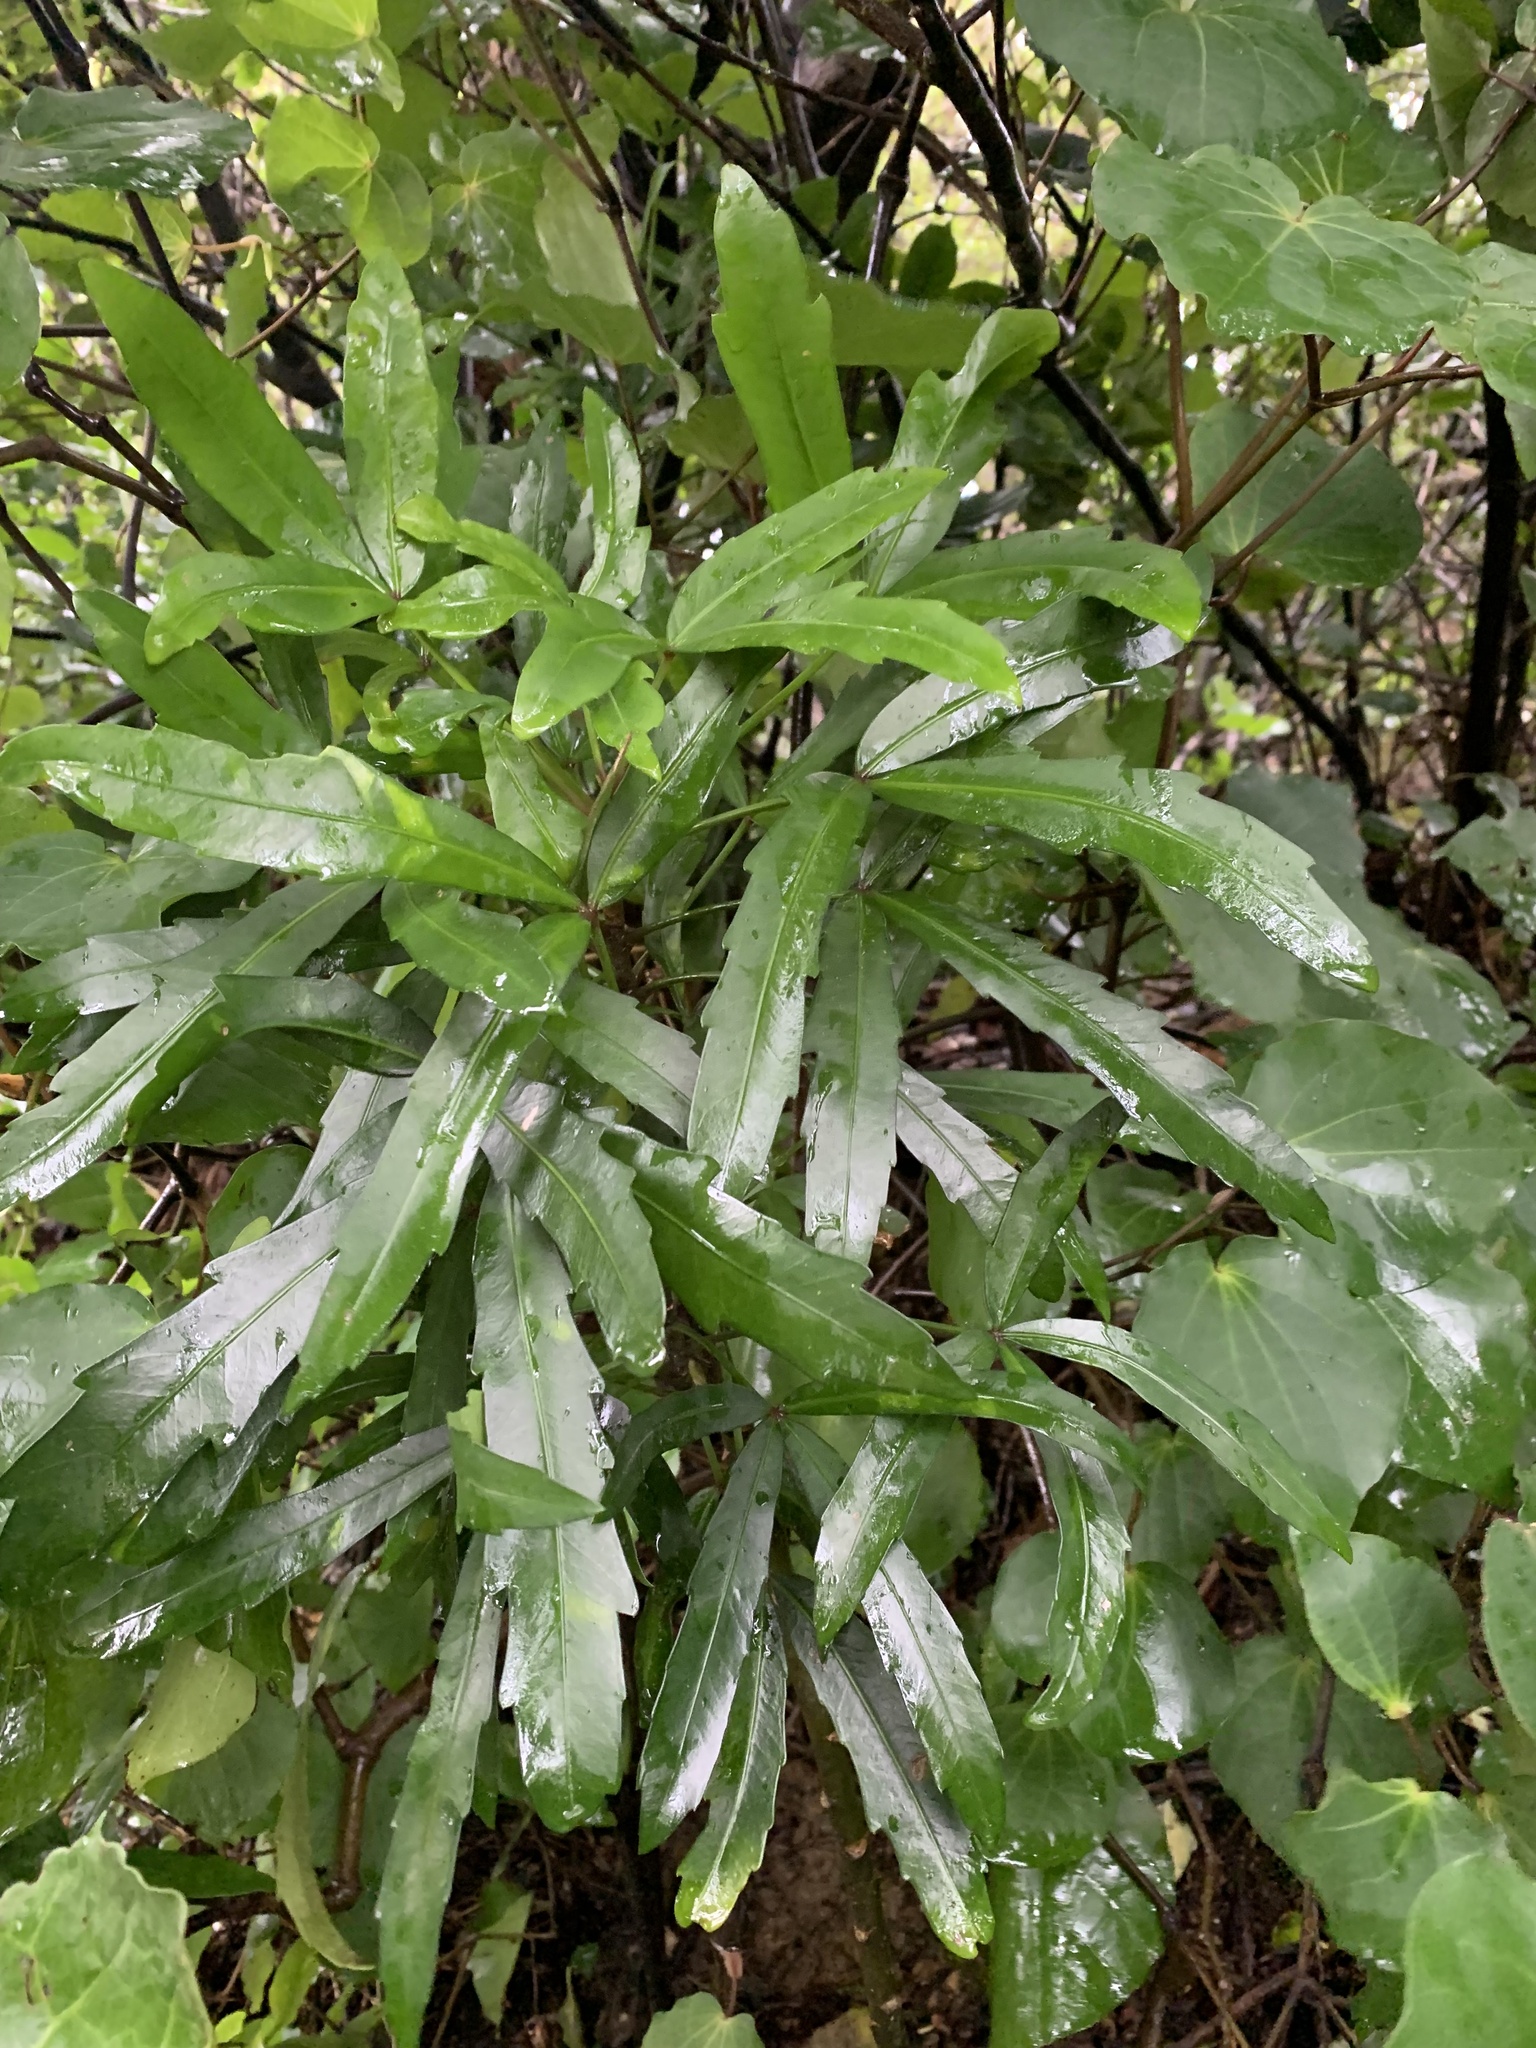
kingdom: Plantae
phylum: Tracheophyta
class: Magnoliopsida
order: Apiales
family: Araliaceae
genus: Pseudopanax
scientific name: Pseudopanax
